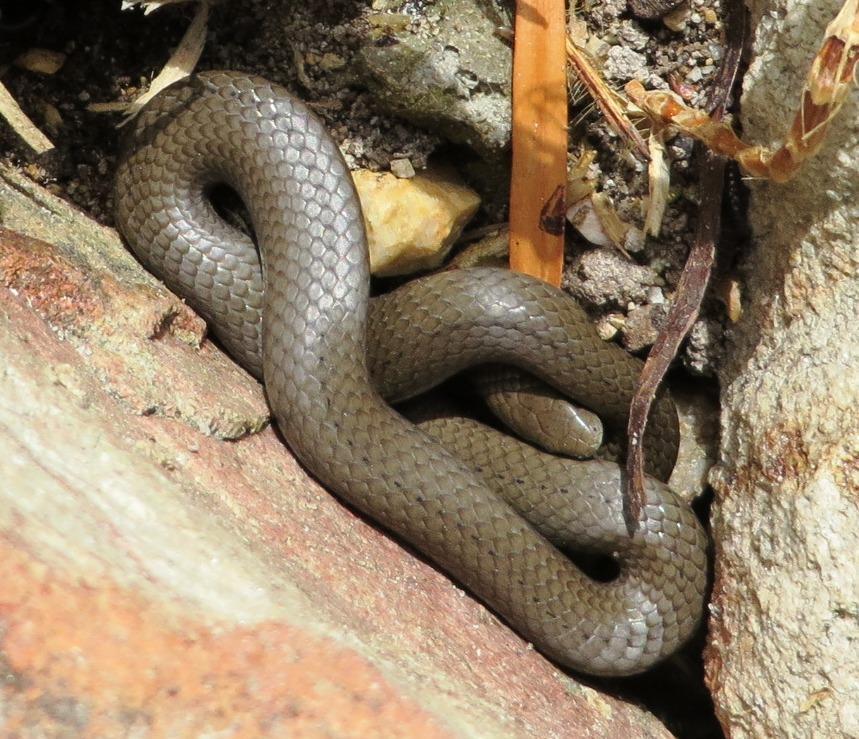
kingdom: Animalia
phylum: Chordata
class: Squamata
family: Pseudoxyrhophiidae
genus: Duberria
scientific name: Duberria lutrix
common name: Common slug eater
